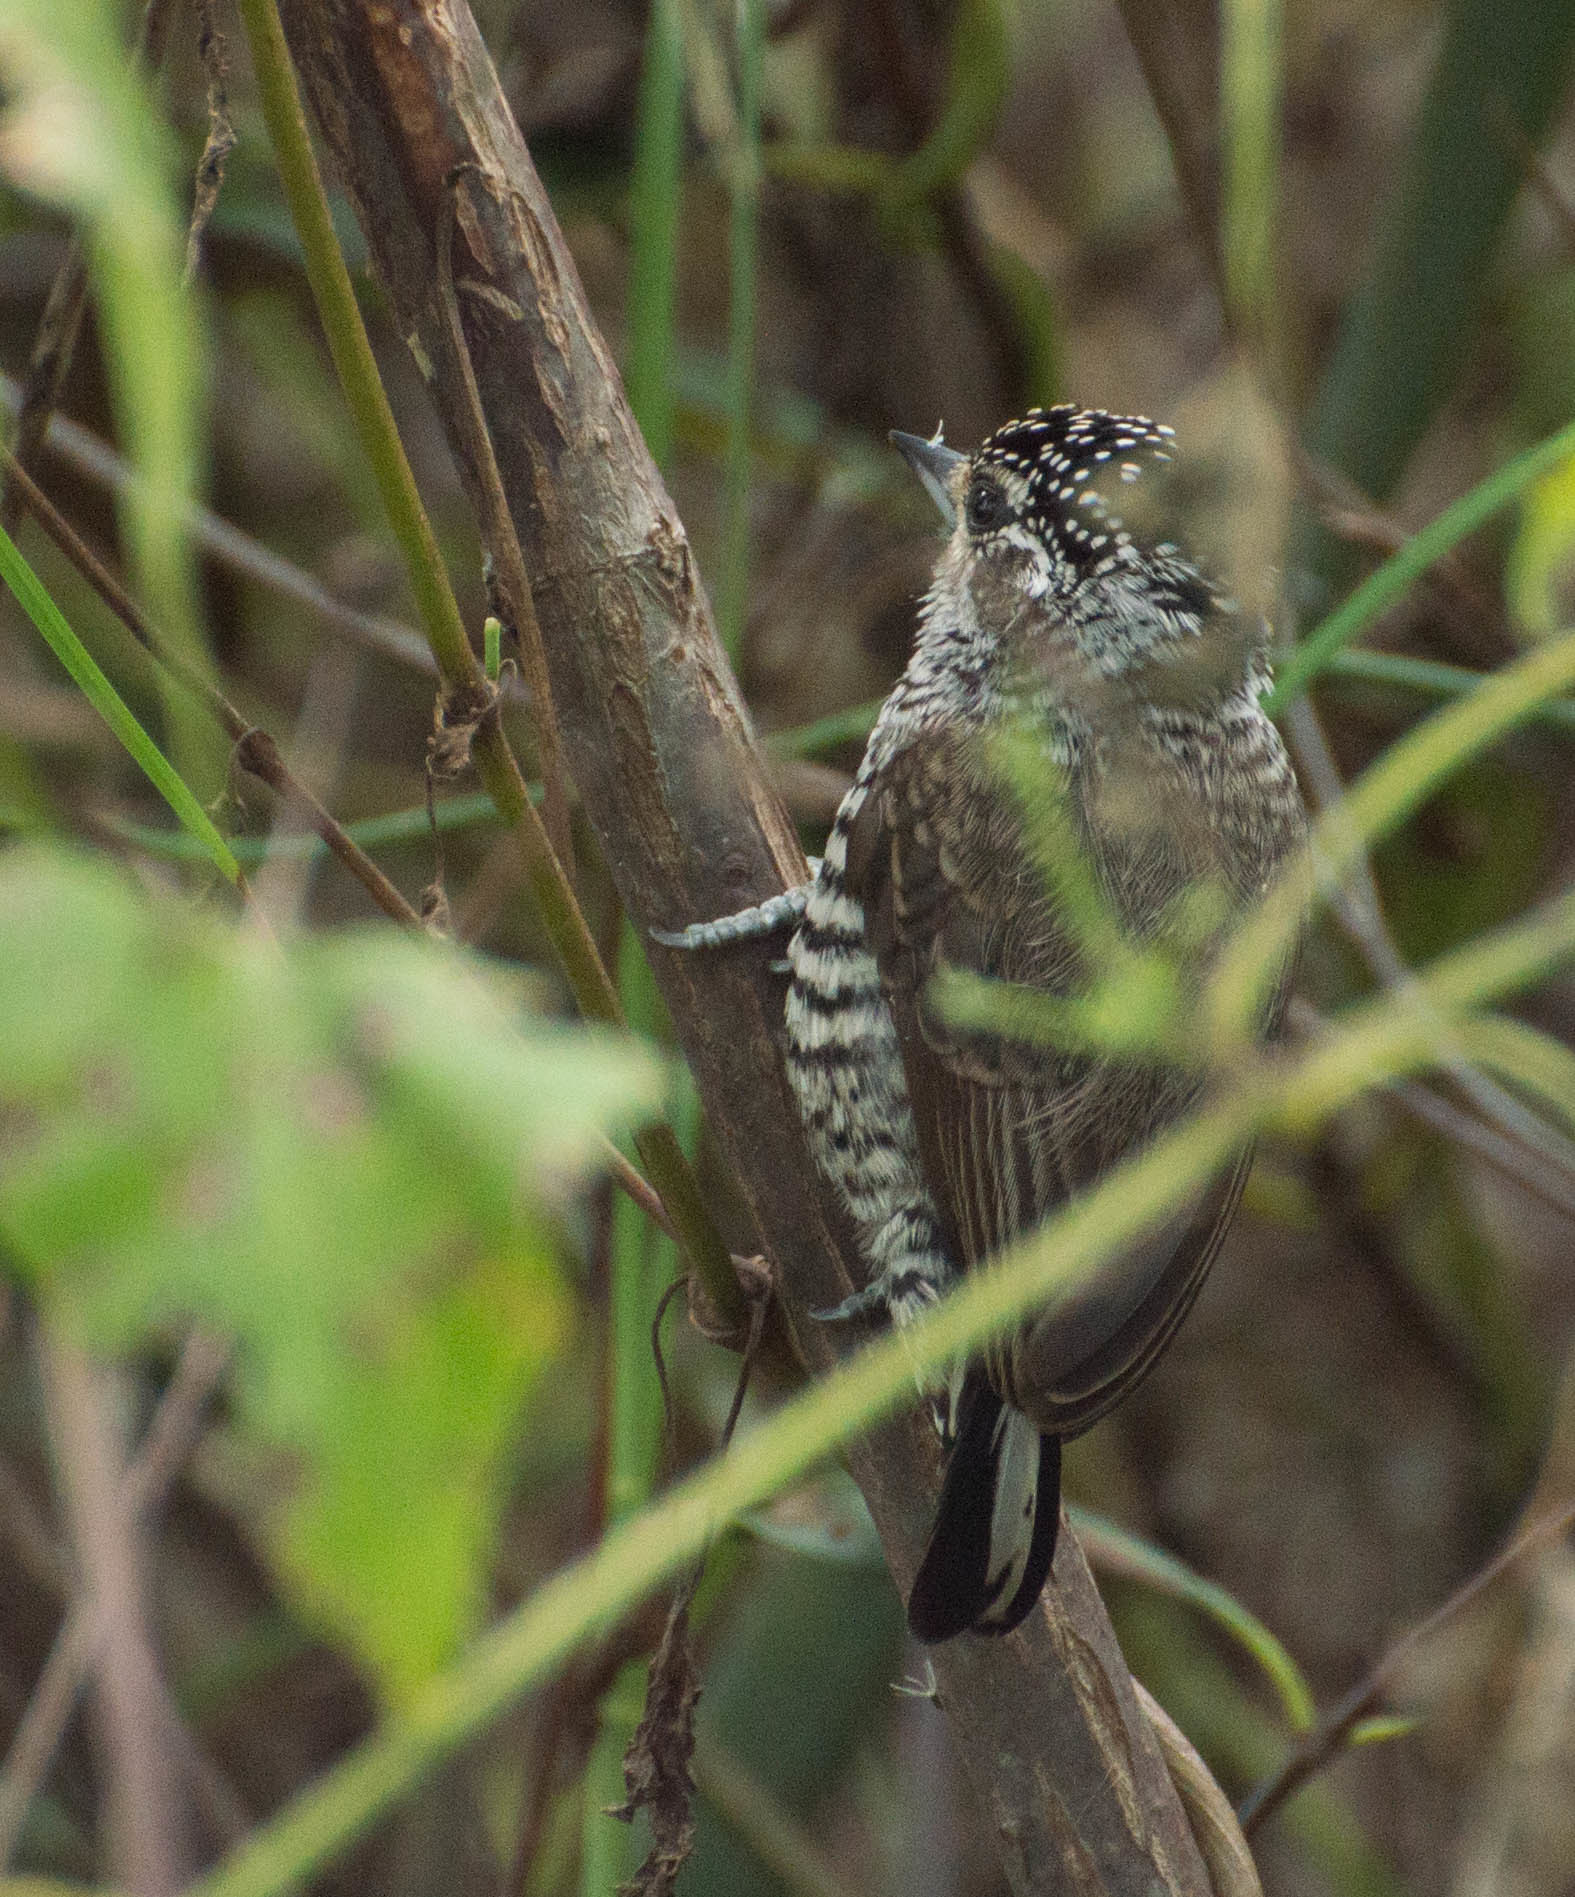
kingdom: Animalia
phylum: Chordata
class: Aves
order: Piciformes
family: Picidae
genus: Picumnus
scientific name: Picumnus cirratus
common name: White-barred piculet
